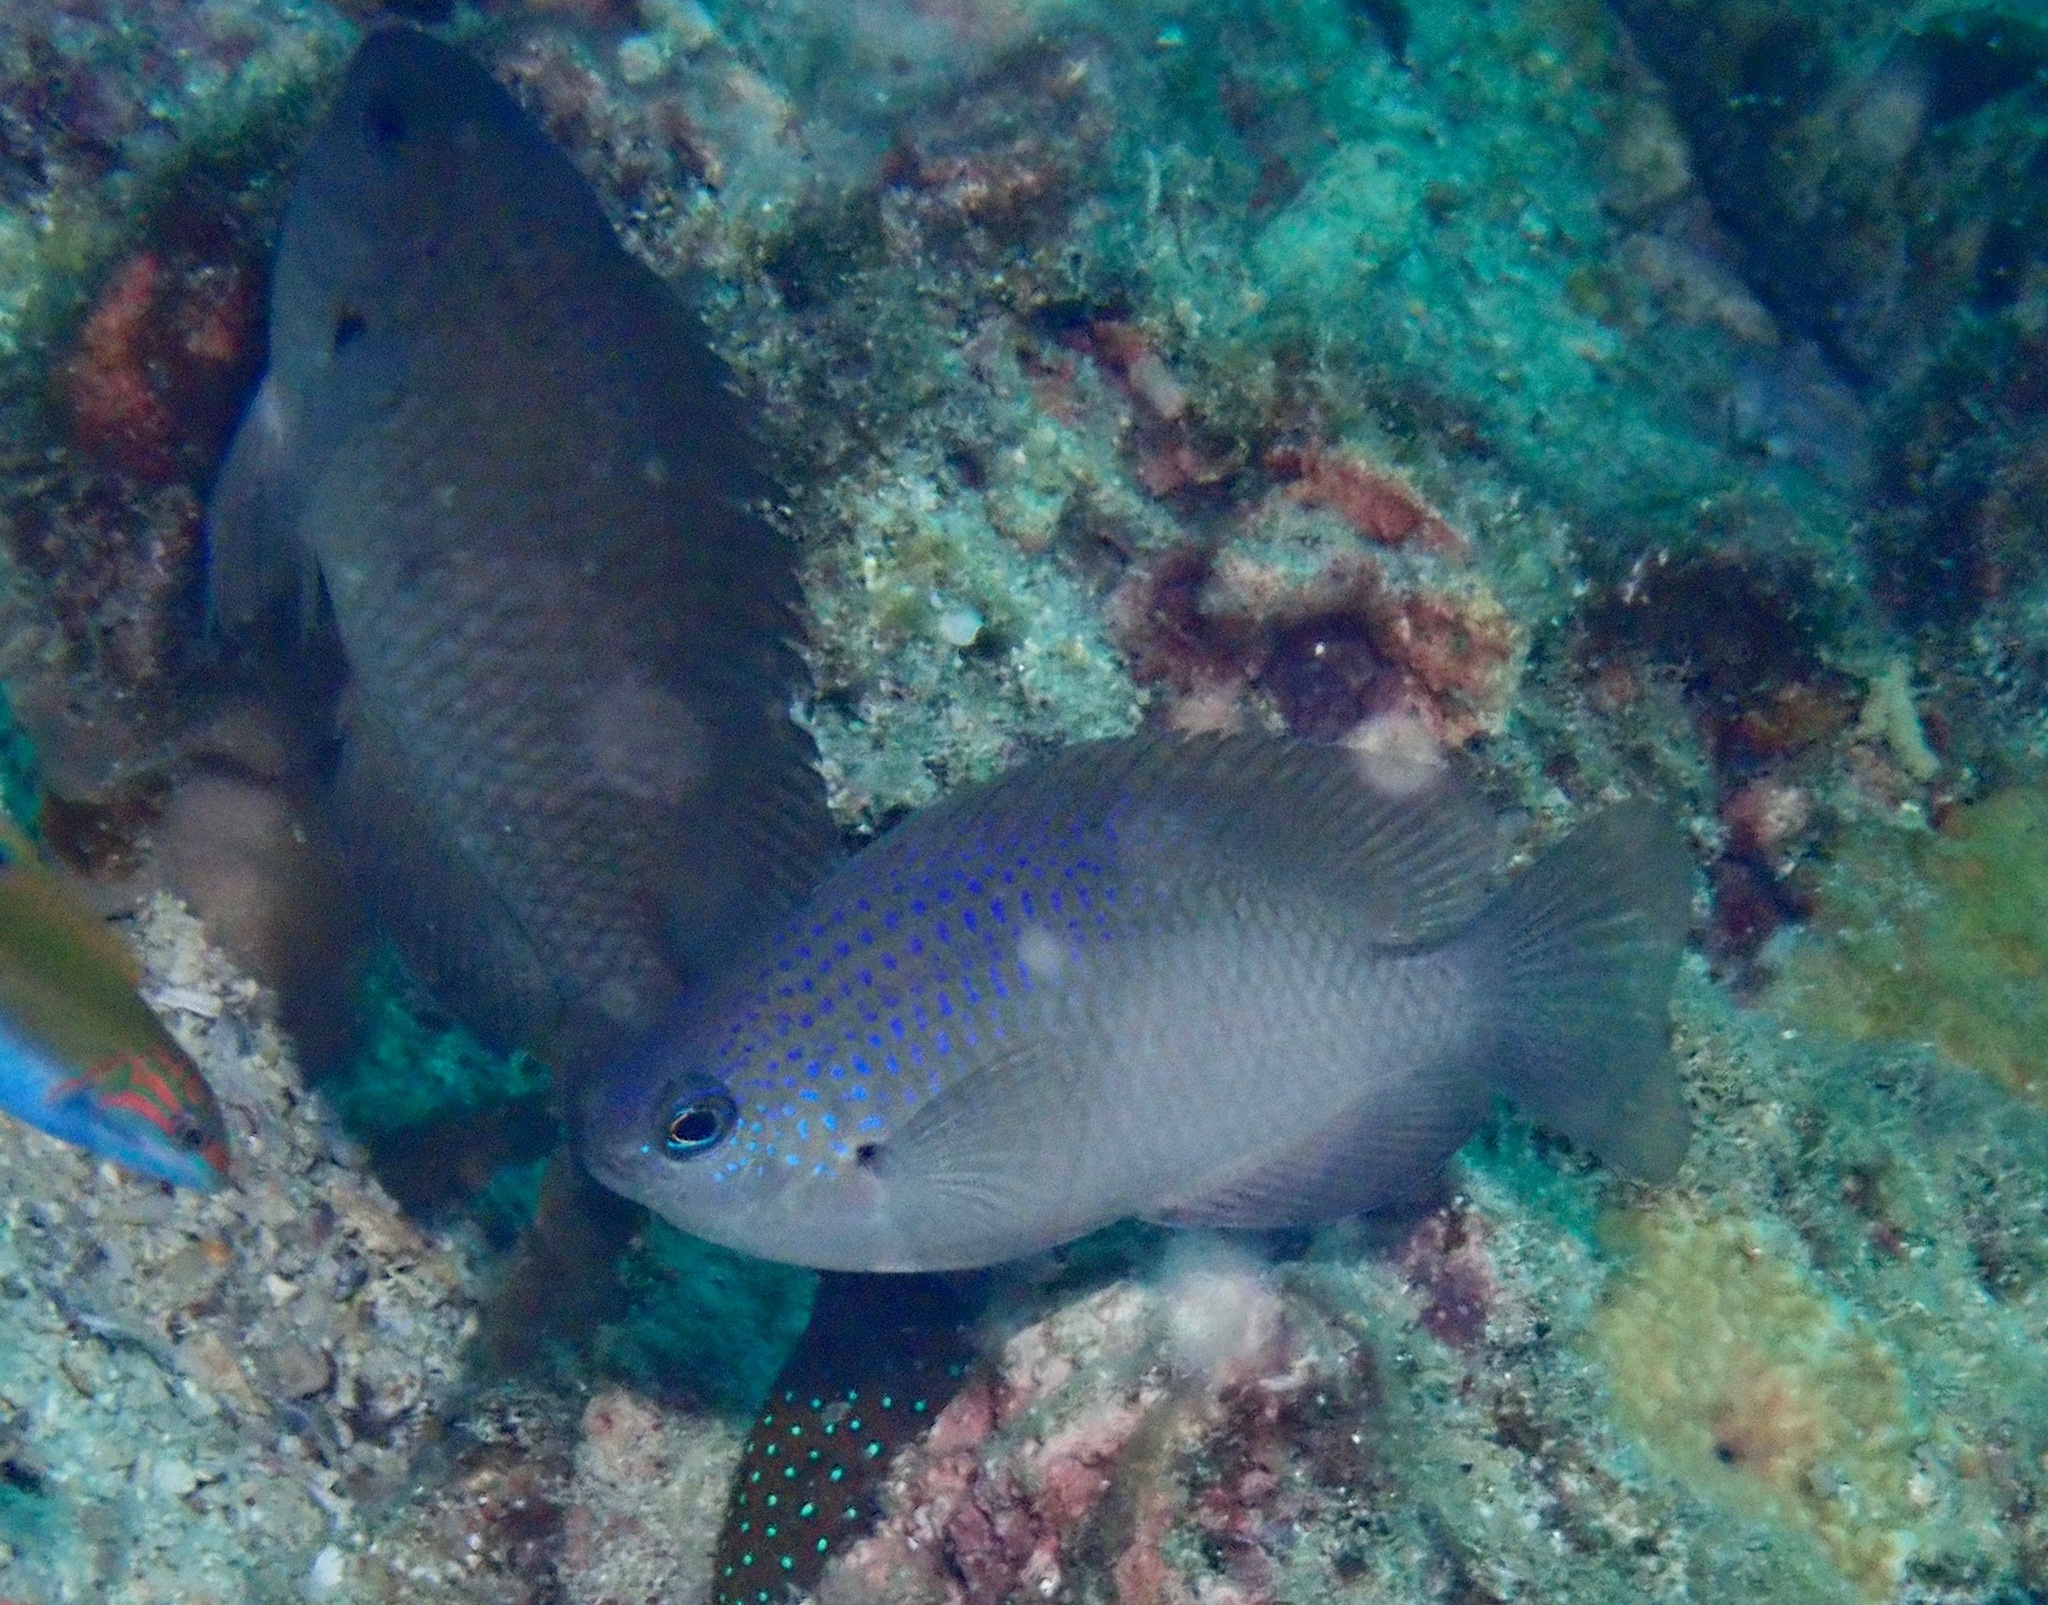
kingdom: Animalia
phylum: Chordata
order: Perciformes
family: Pomacentridae
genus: Pomacentrus
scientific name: Pomacentrus azuremaculatus
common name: Azure-spotted damsel
